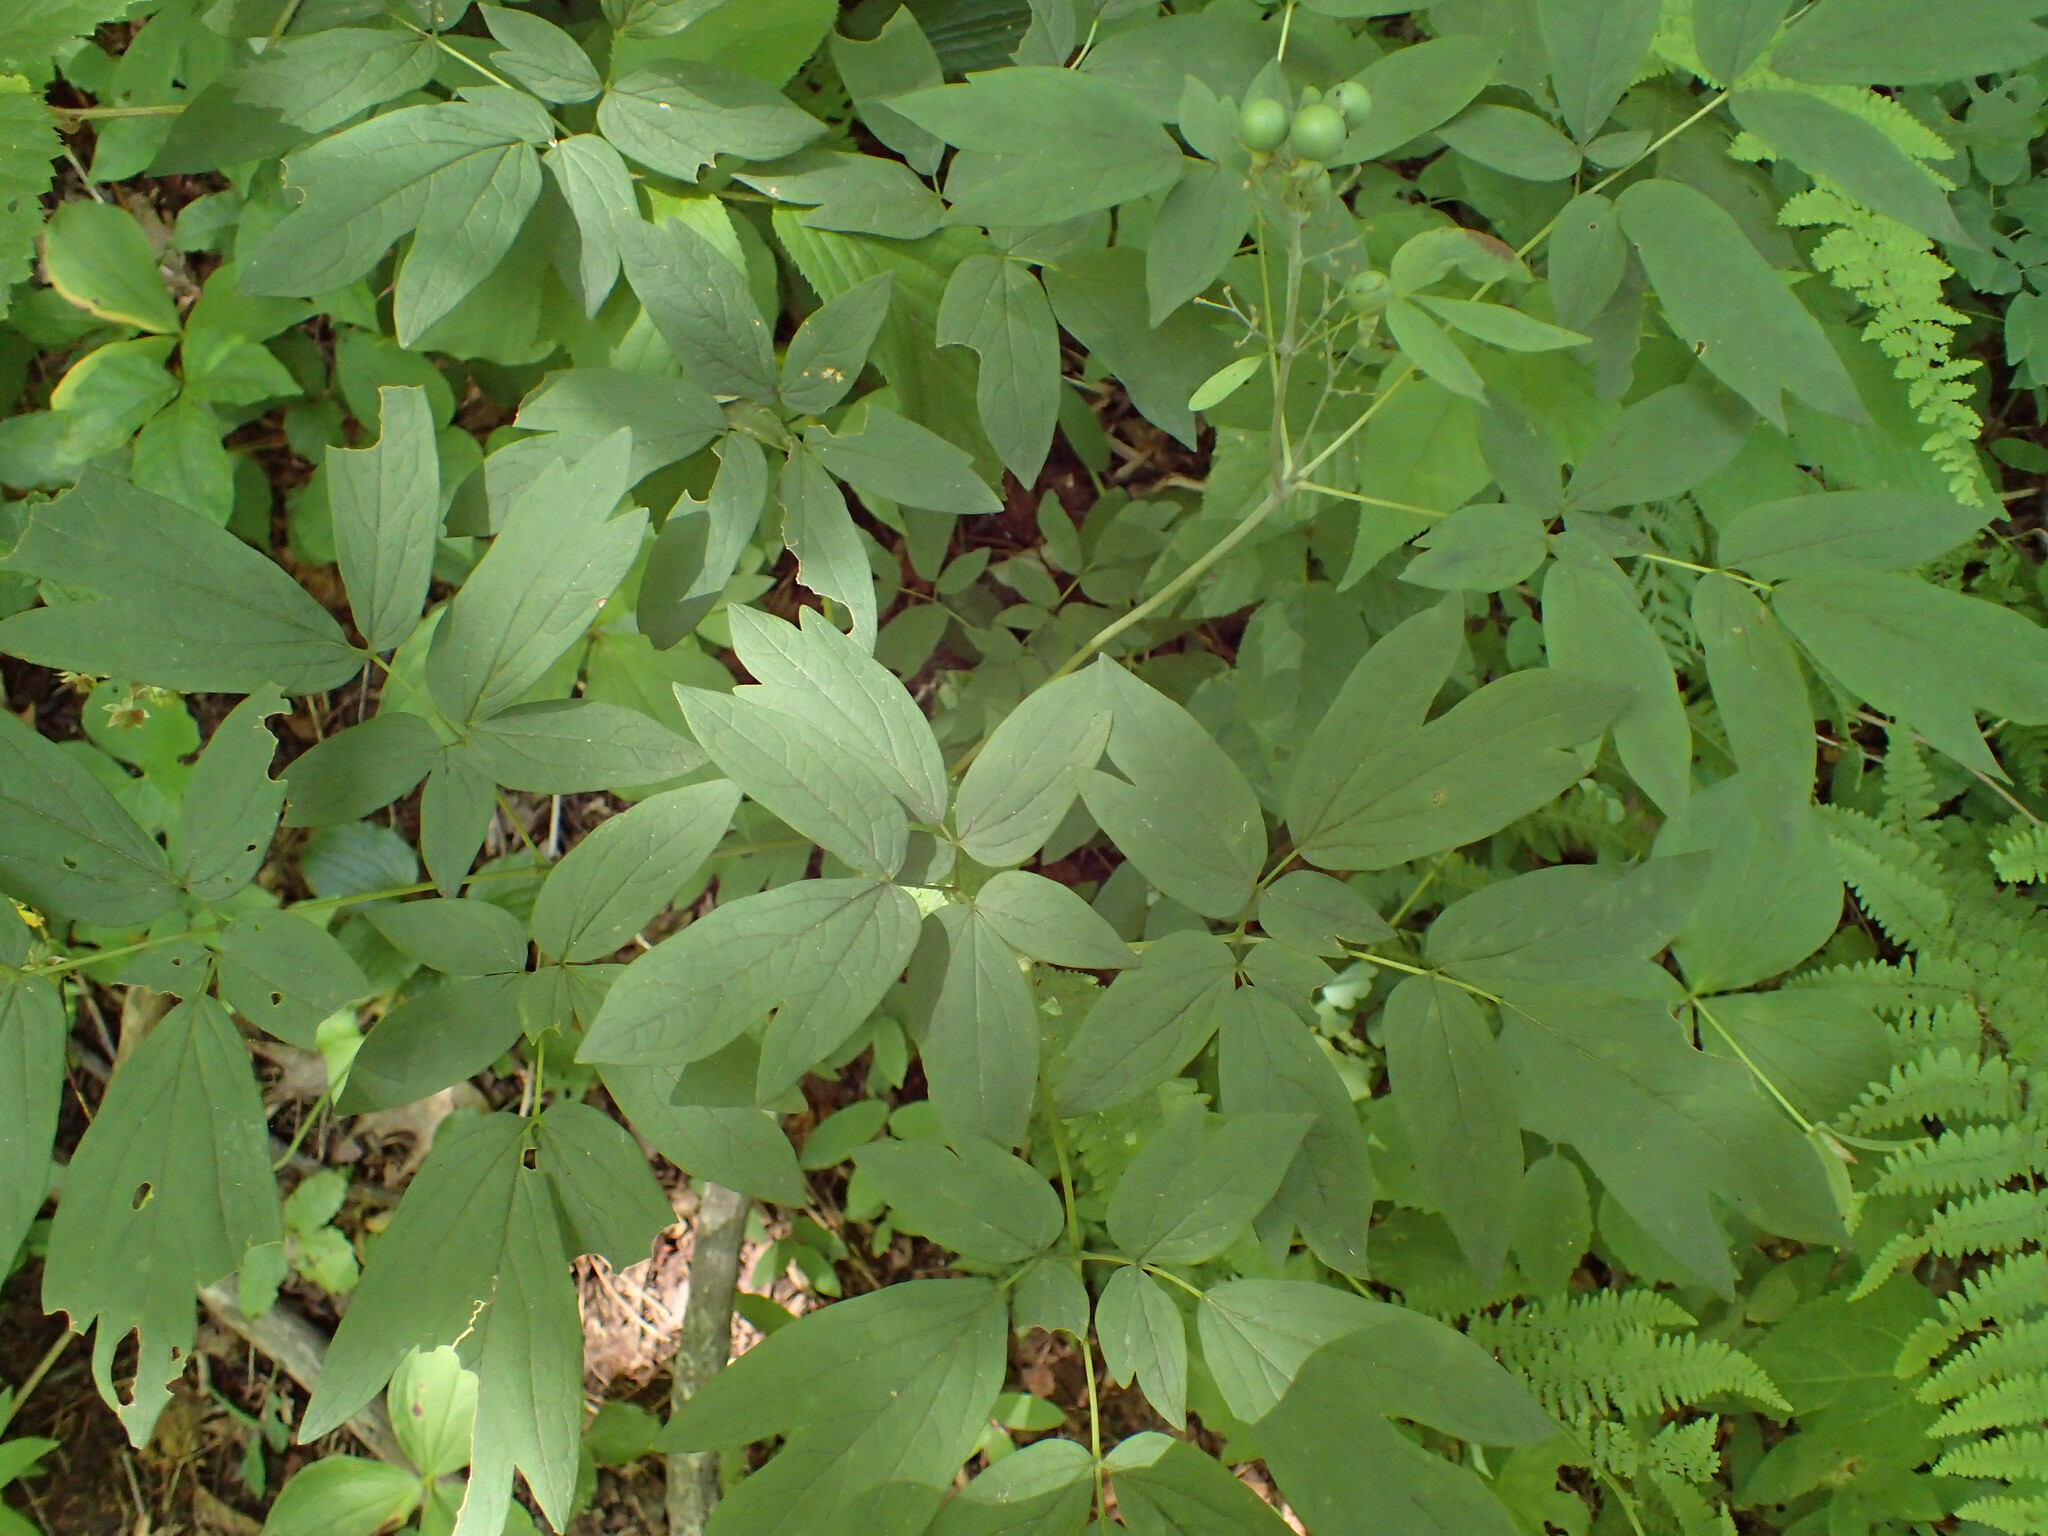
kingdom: Plantae
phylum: Tracheophyta
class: Magnoliopsida
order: Ranunculales
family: Berberidaceae
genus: Caulophyllum
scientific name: Caulophyllum thalictroides
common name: Blue cohosh
